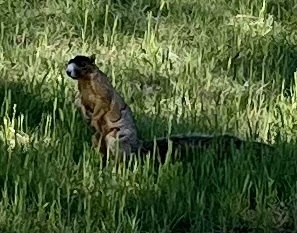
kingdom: Animalia
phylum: Chordata
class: Mammalia
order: Rodentia
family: Sciuridae
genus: Sciurus
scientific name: Sciurus niger
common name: Fox squirrel
